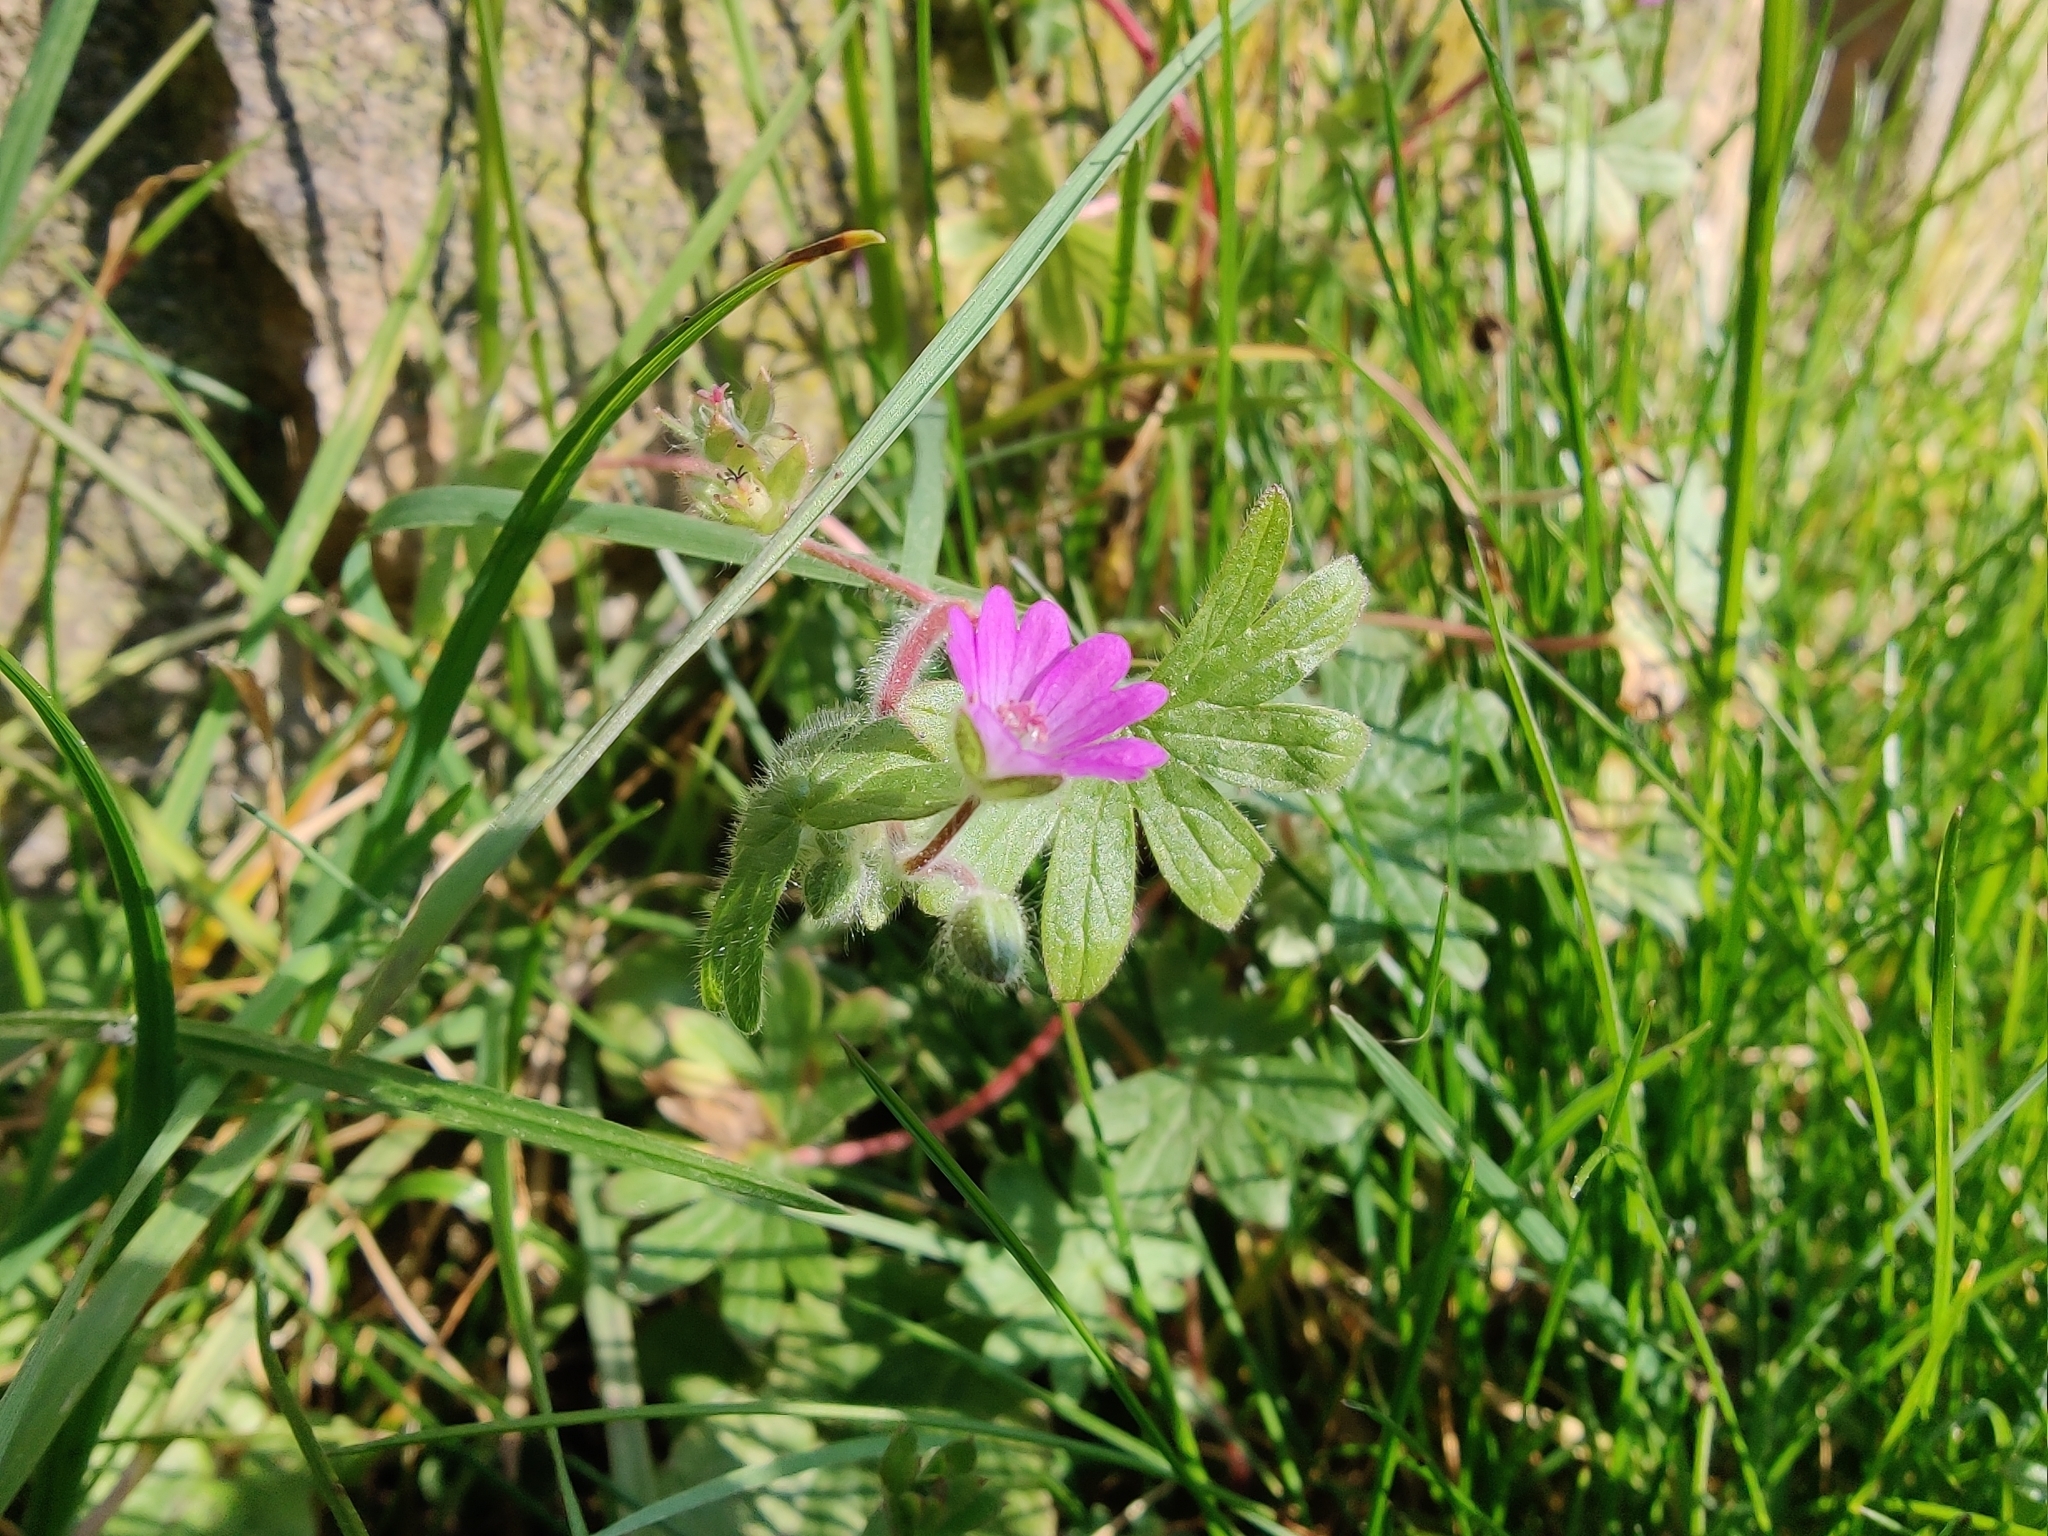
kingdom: Plantae
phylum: Tracheophyta
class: Magnoliopsida
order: Geraniales
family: Geraniaceae
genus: Geranium
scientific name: Geranium molle
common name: Dove's-foot crane's-bill
